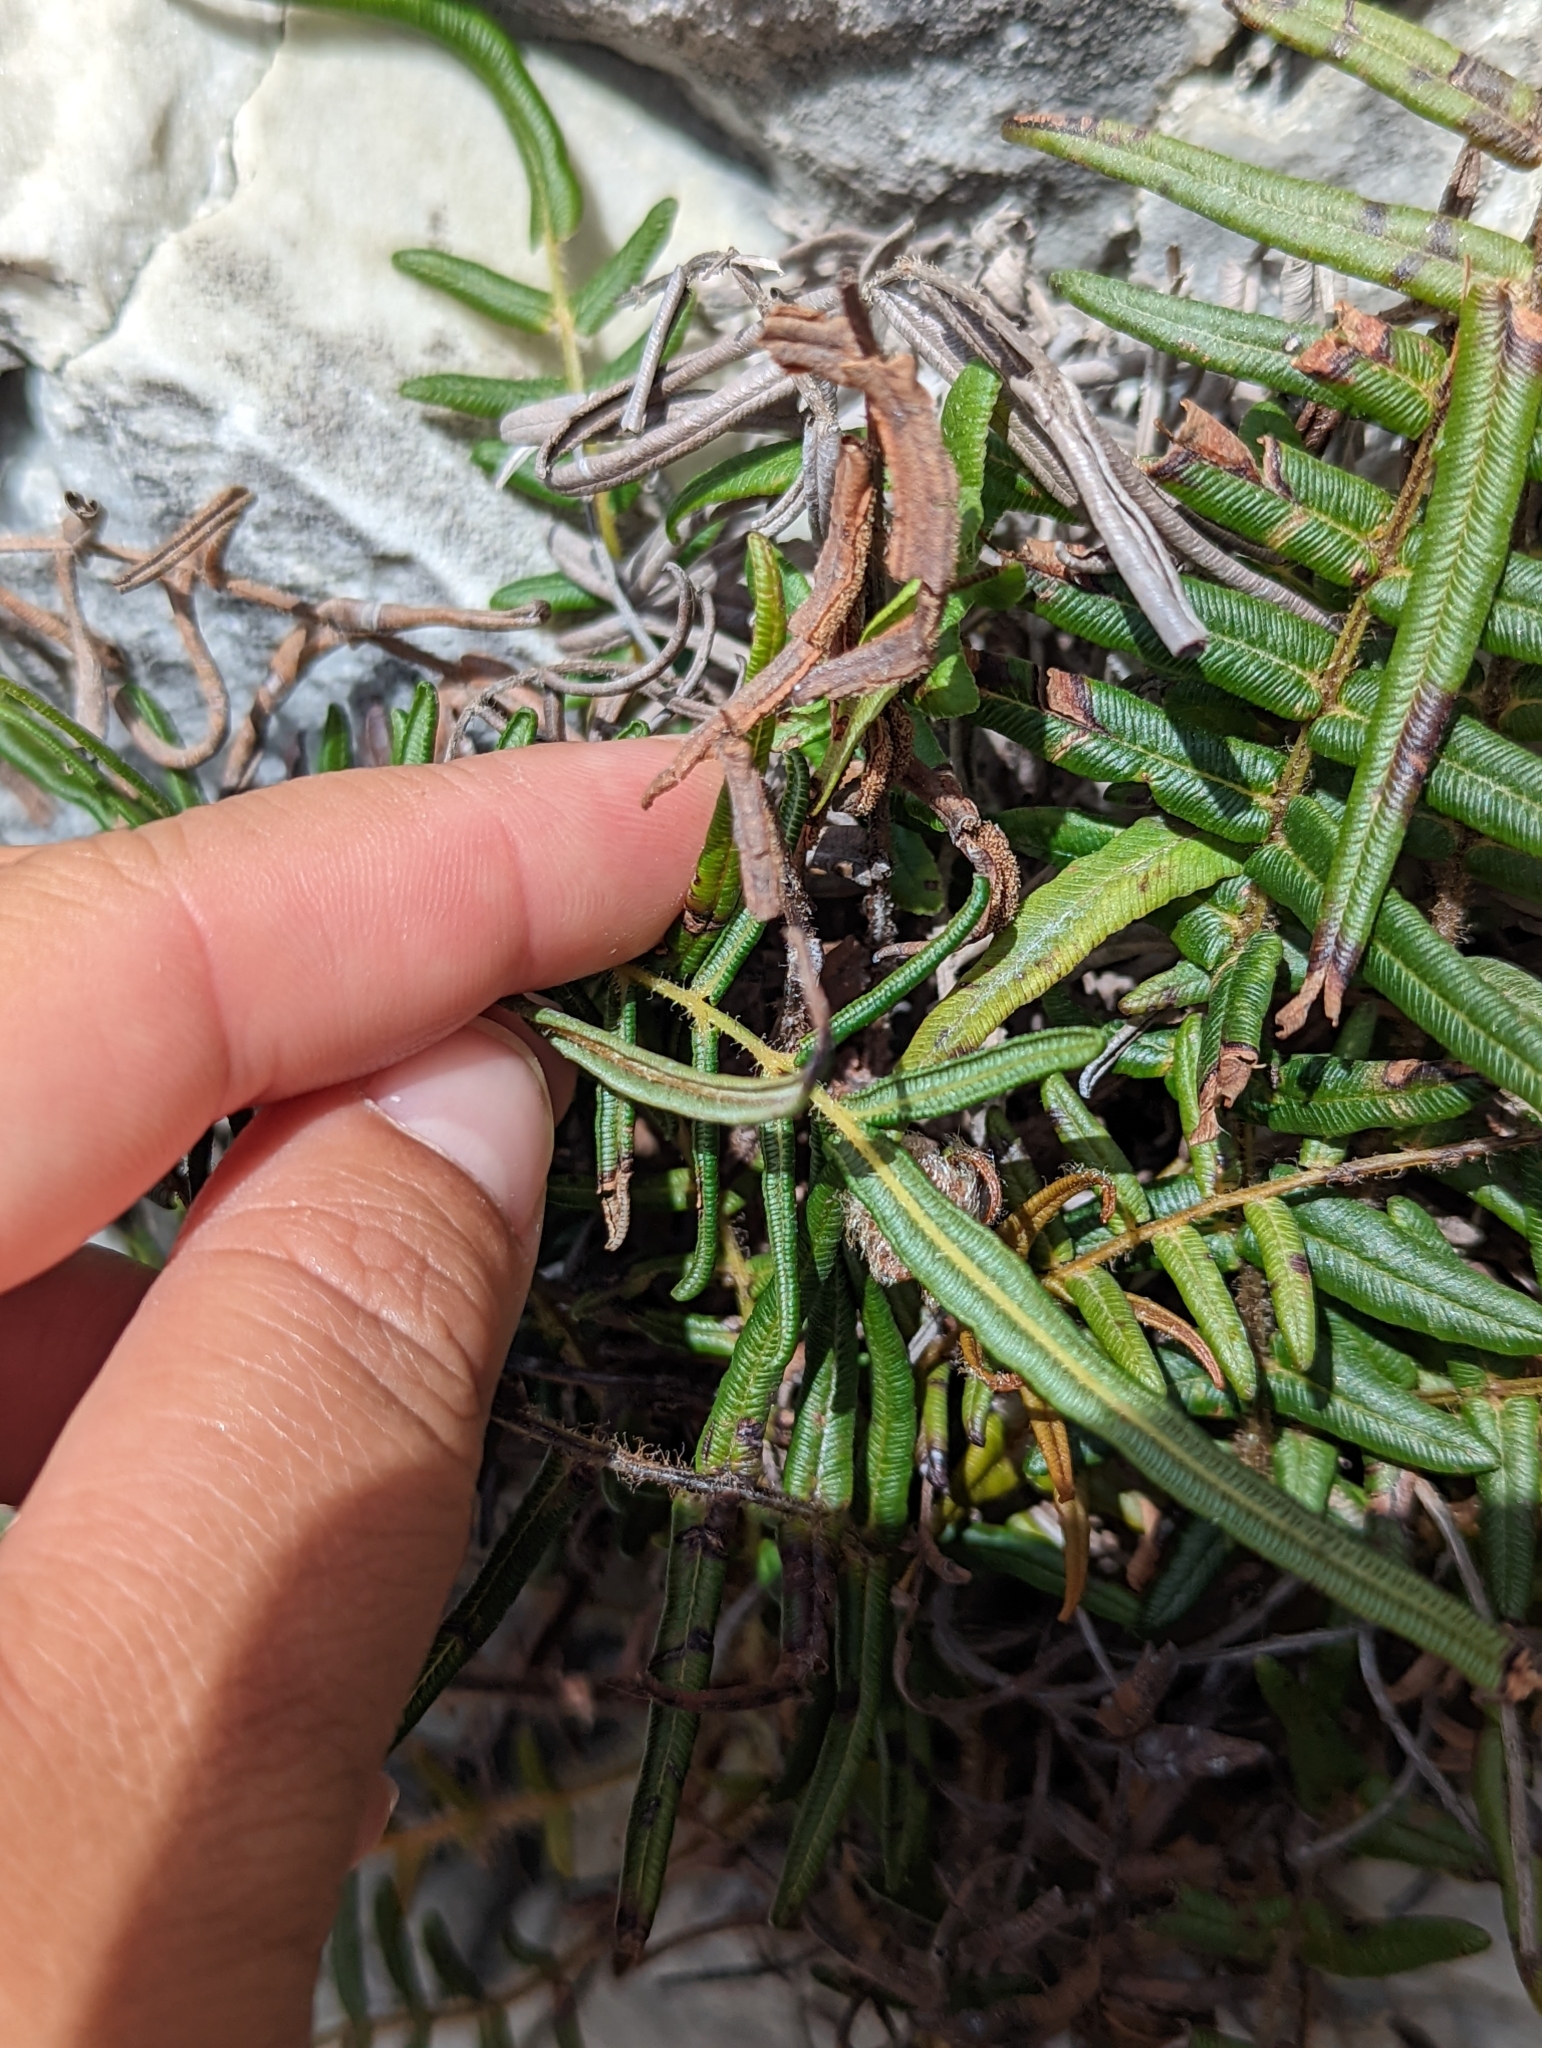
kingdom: Plantae
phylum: Tracheophyta
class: Polypodiopsida
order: Polypodiales
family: Pteridaceae
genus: Pteris
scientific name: Pteris vittata
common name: Ladder brake
